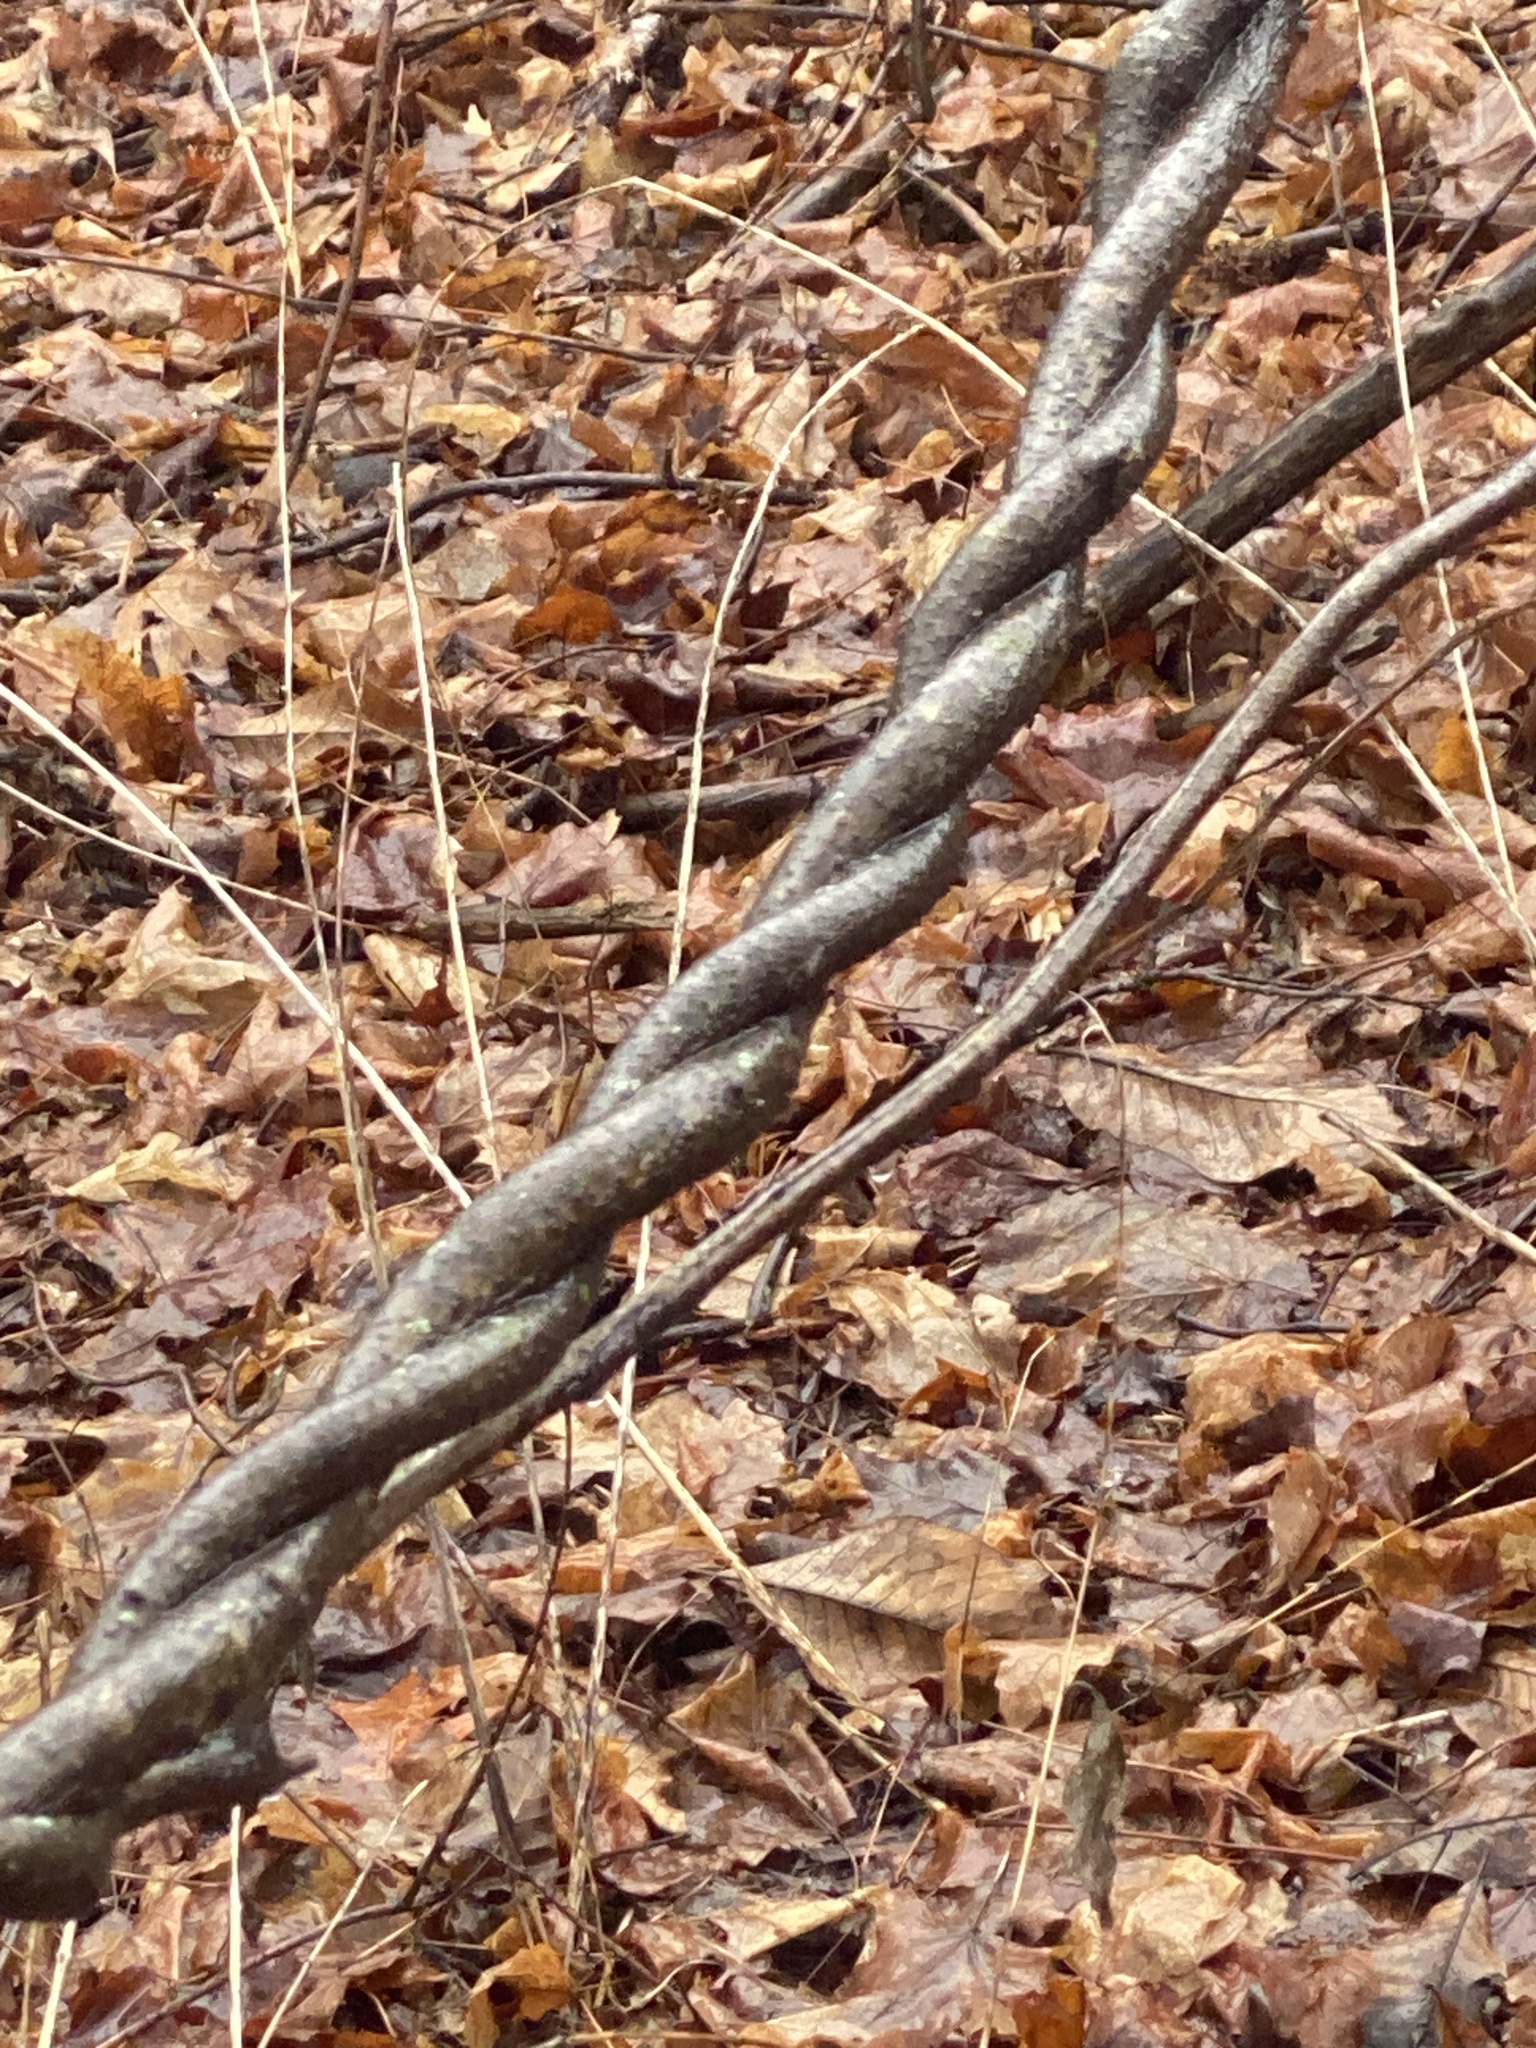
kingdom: Plantae
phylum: Tracheophyta
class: Magnoliopsida
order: Celastrales
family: Celastraceae
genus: Celastrus
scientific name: Celastrus orbiculatus
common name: Oriental bittersweet
